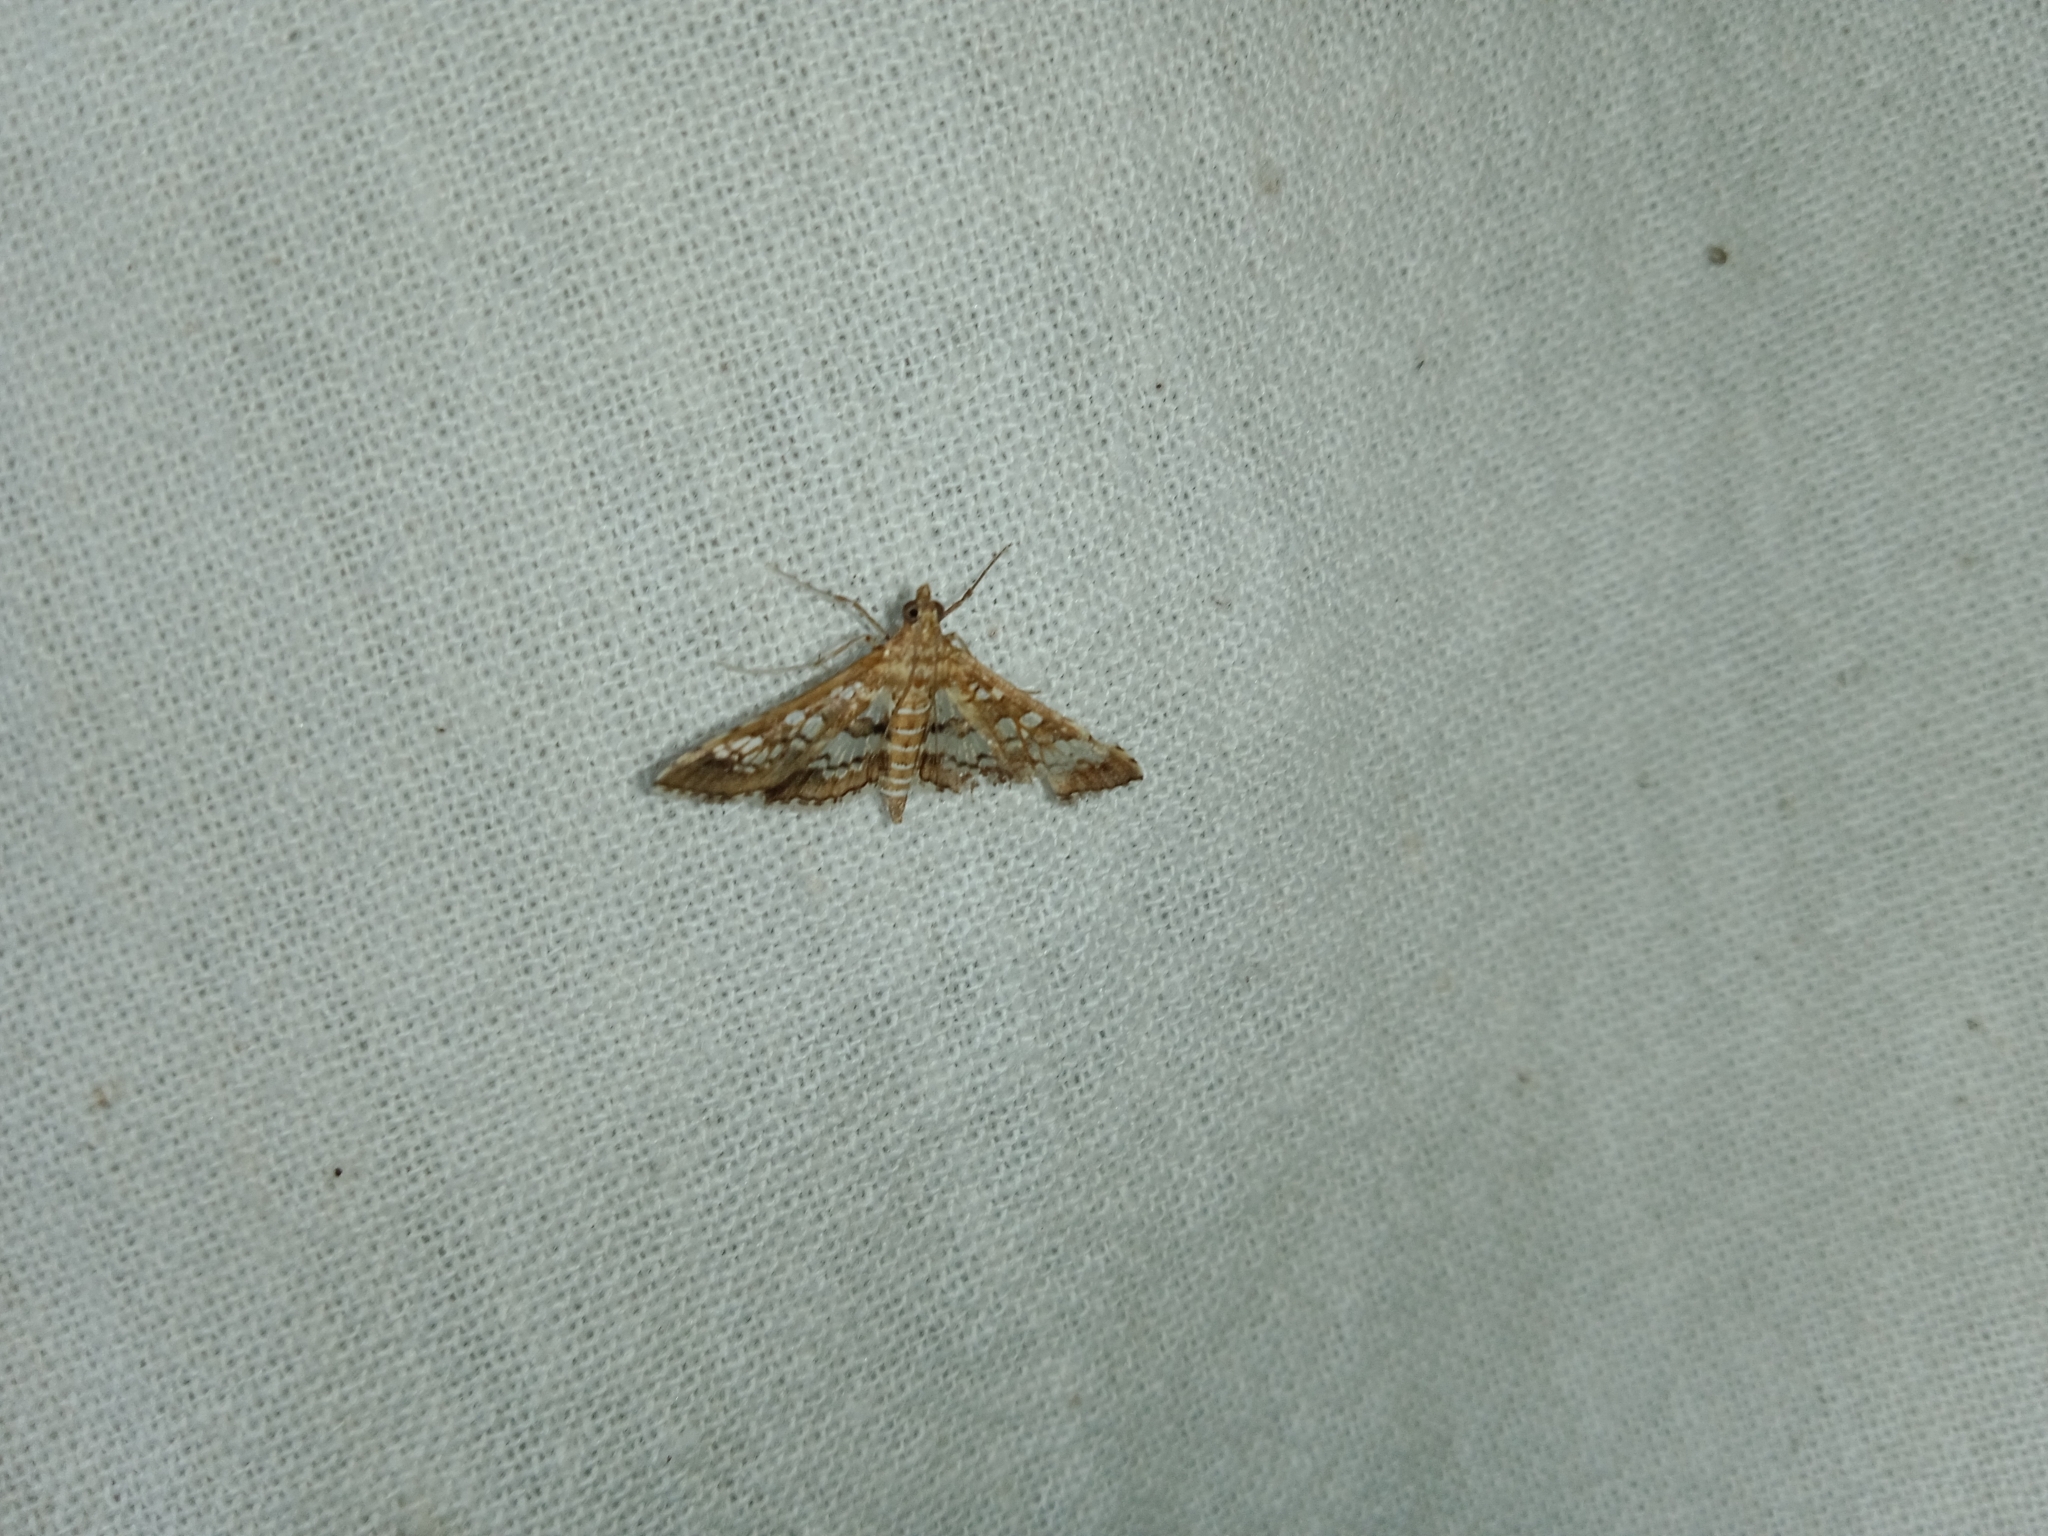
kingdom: Animalia
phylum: Arthropoda
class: Insecta
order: Lepidoptera
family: Crambidae
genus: Sameodes
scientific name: Sameodes cancellalis
